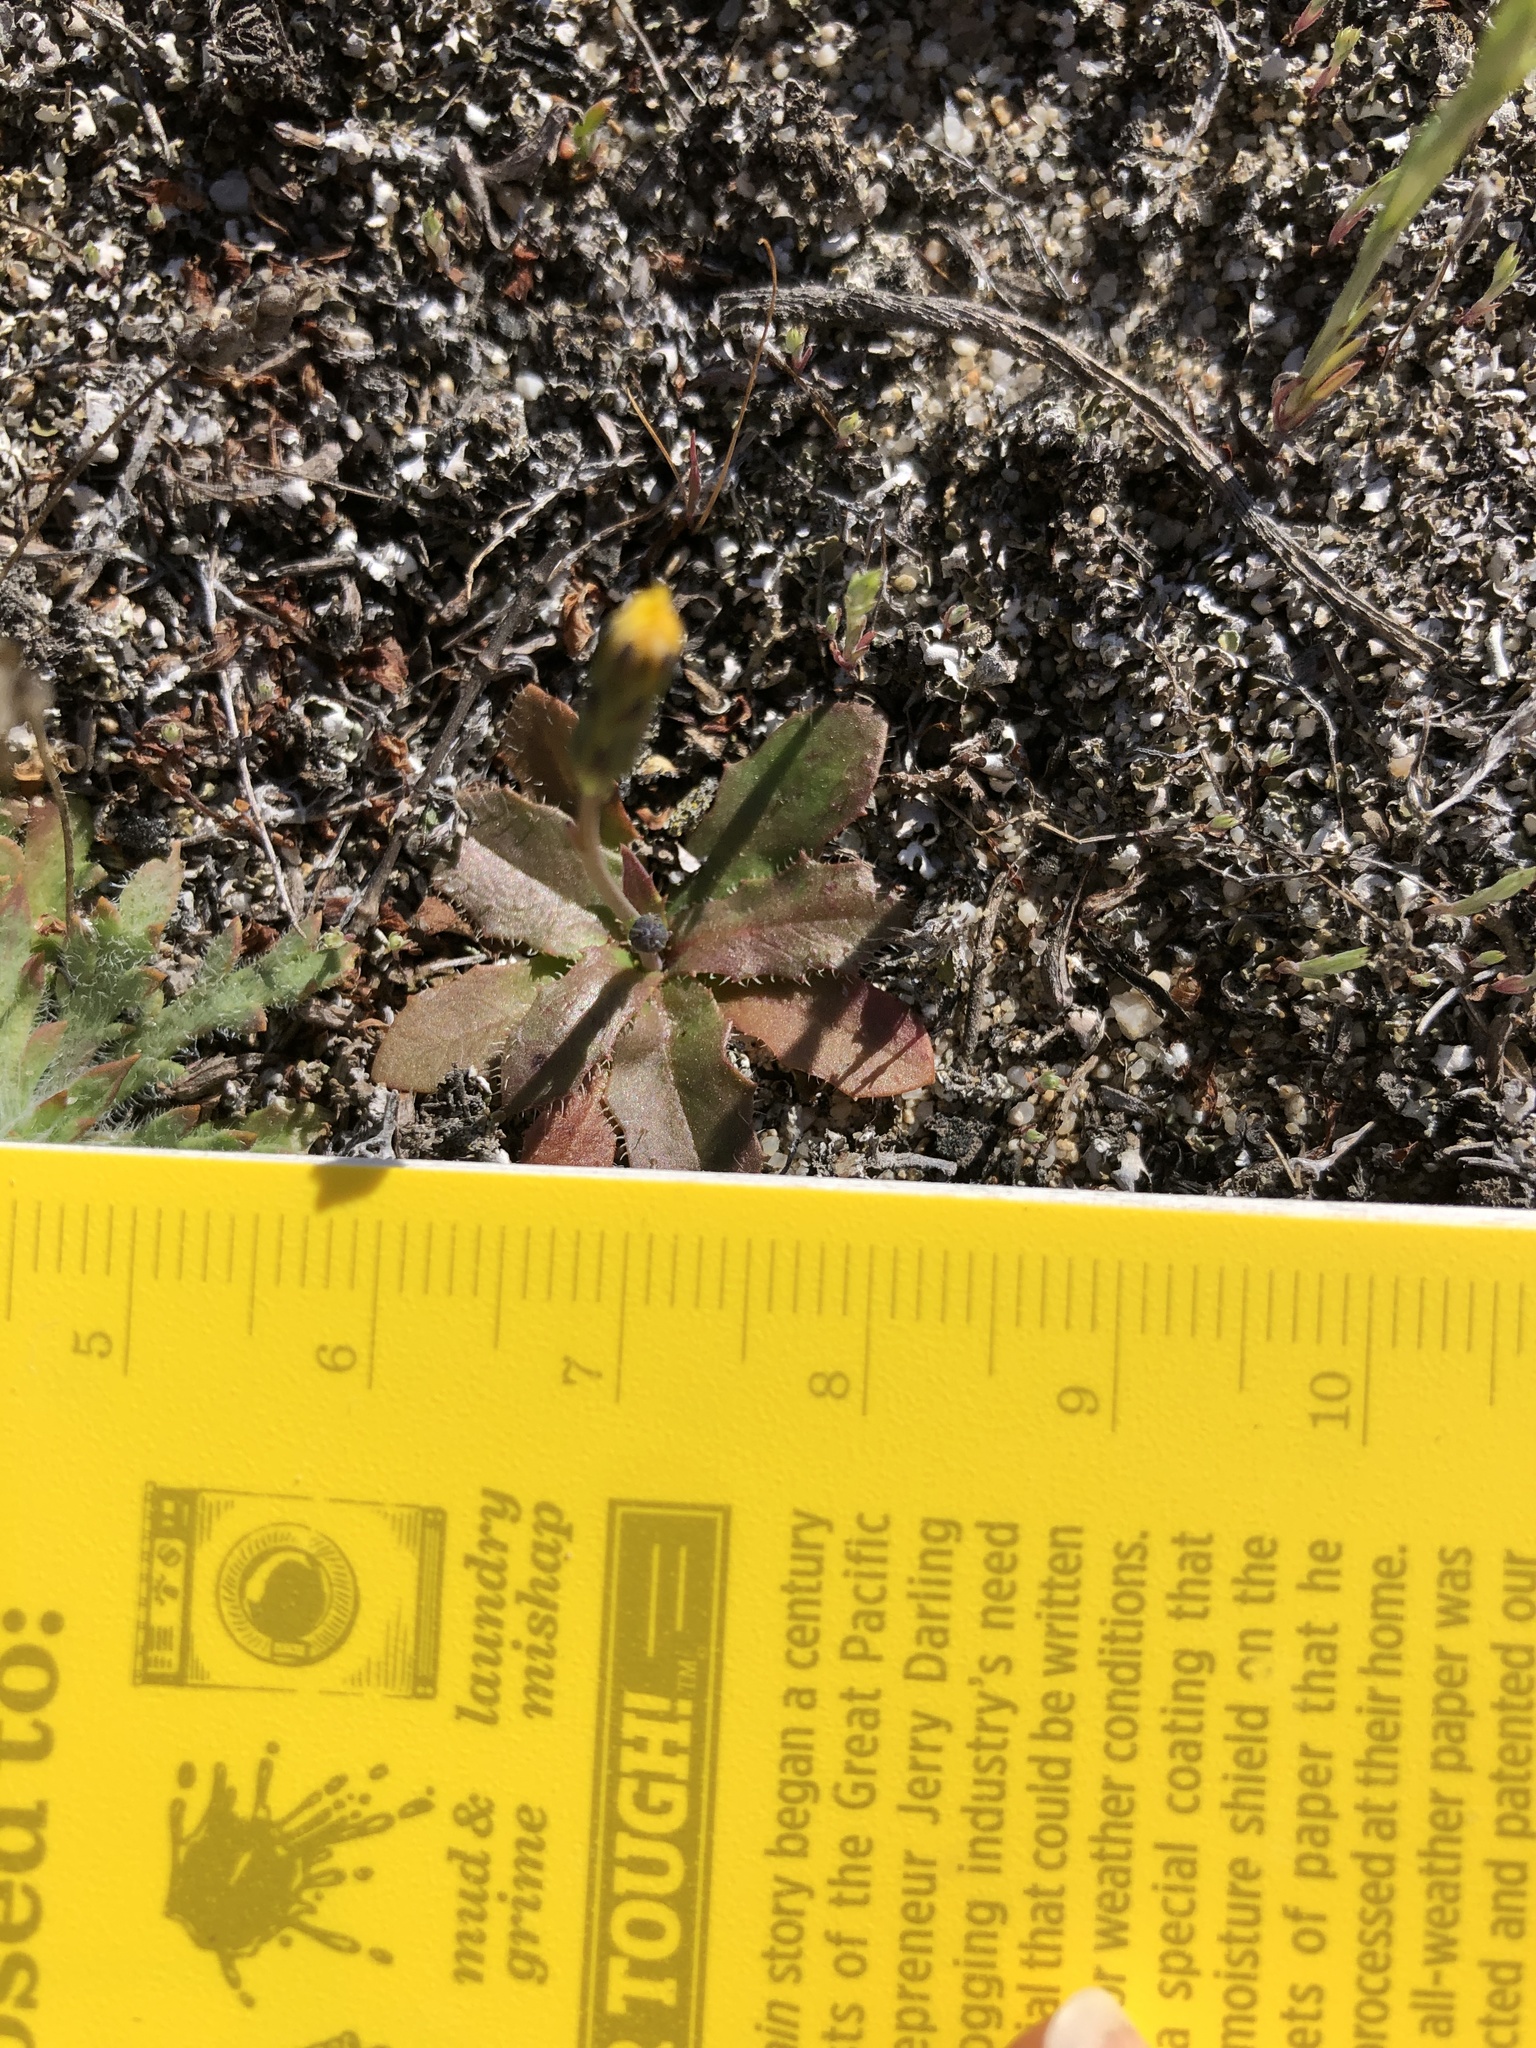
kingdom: Plantae
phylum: Tracheophyta
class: Magnoliopsida
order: Asterales
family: Asteraceae
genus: Hypochaeris
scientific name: Hypochaeris glabra
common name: Smooth catsear
